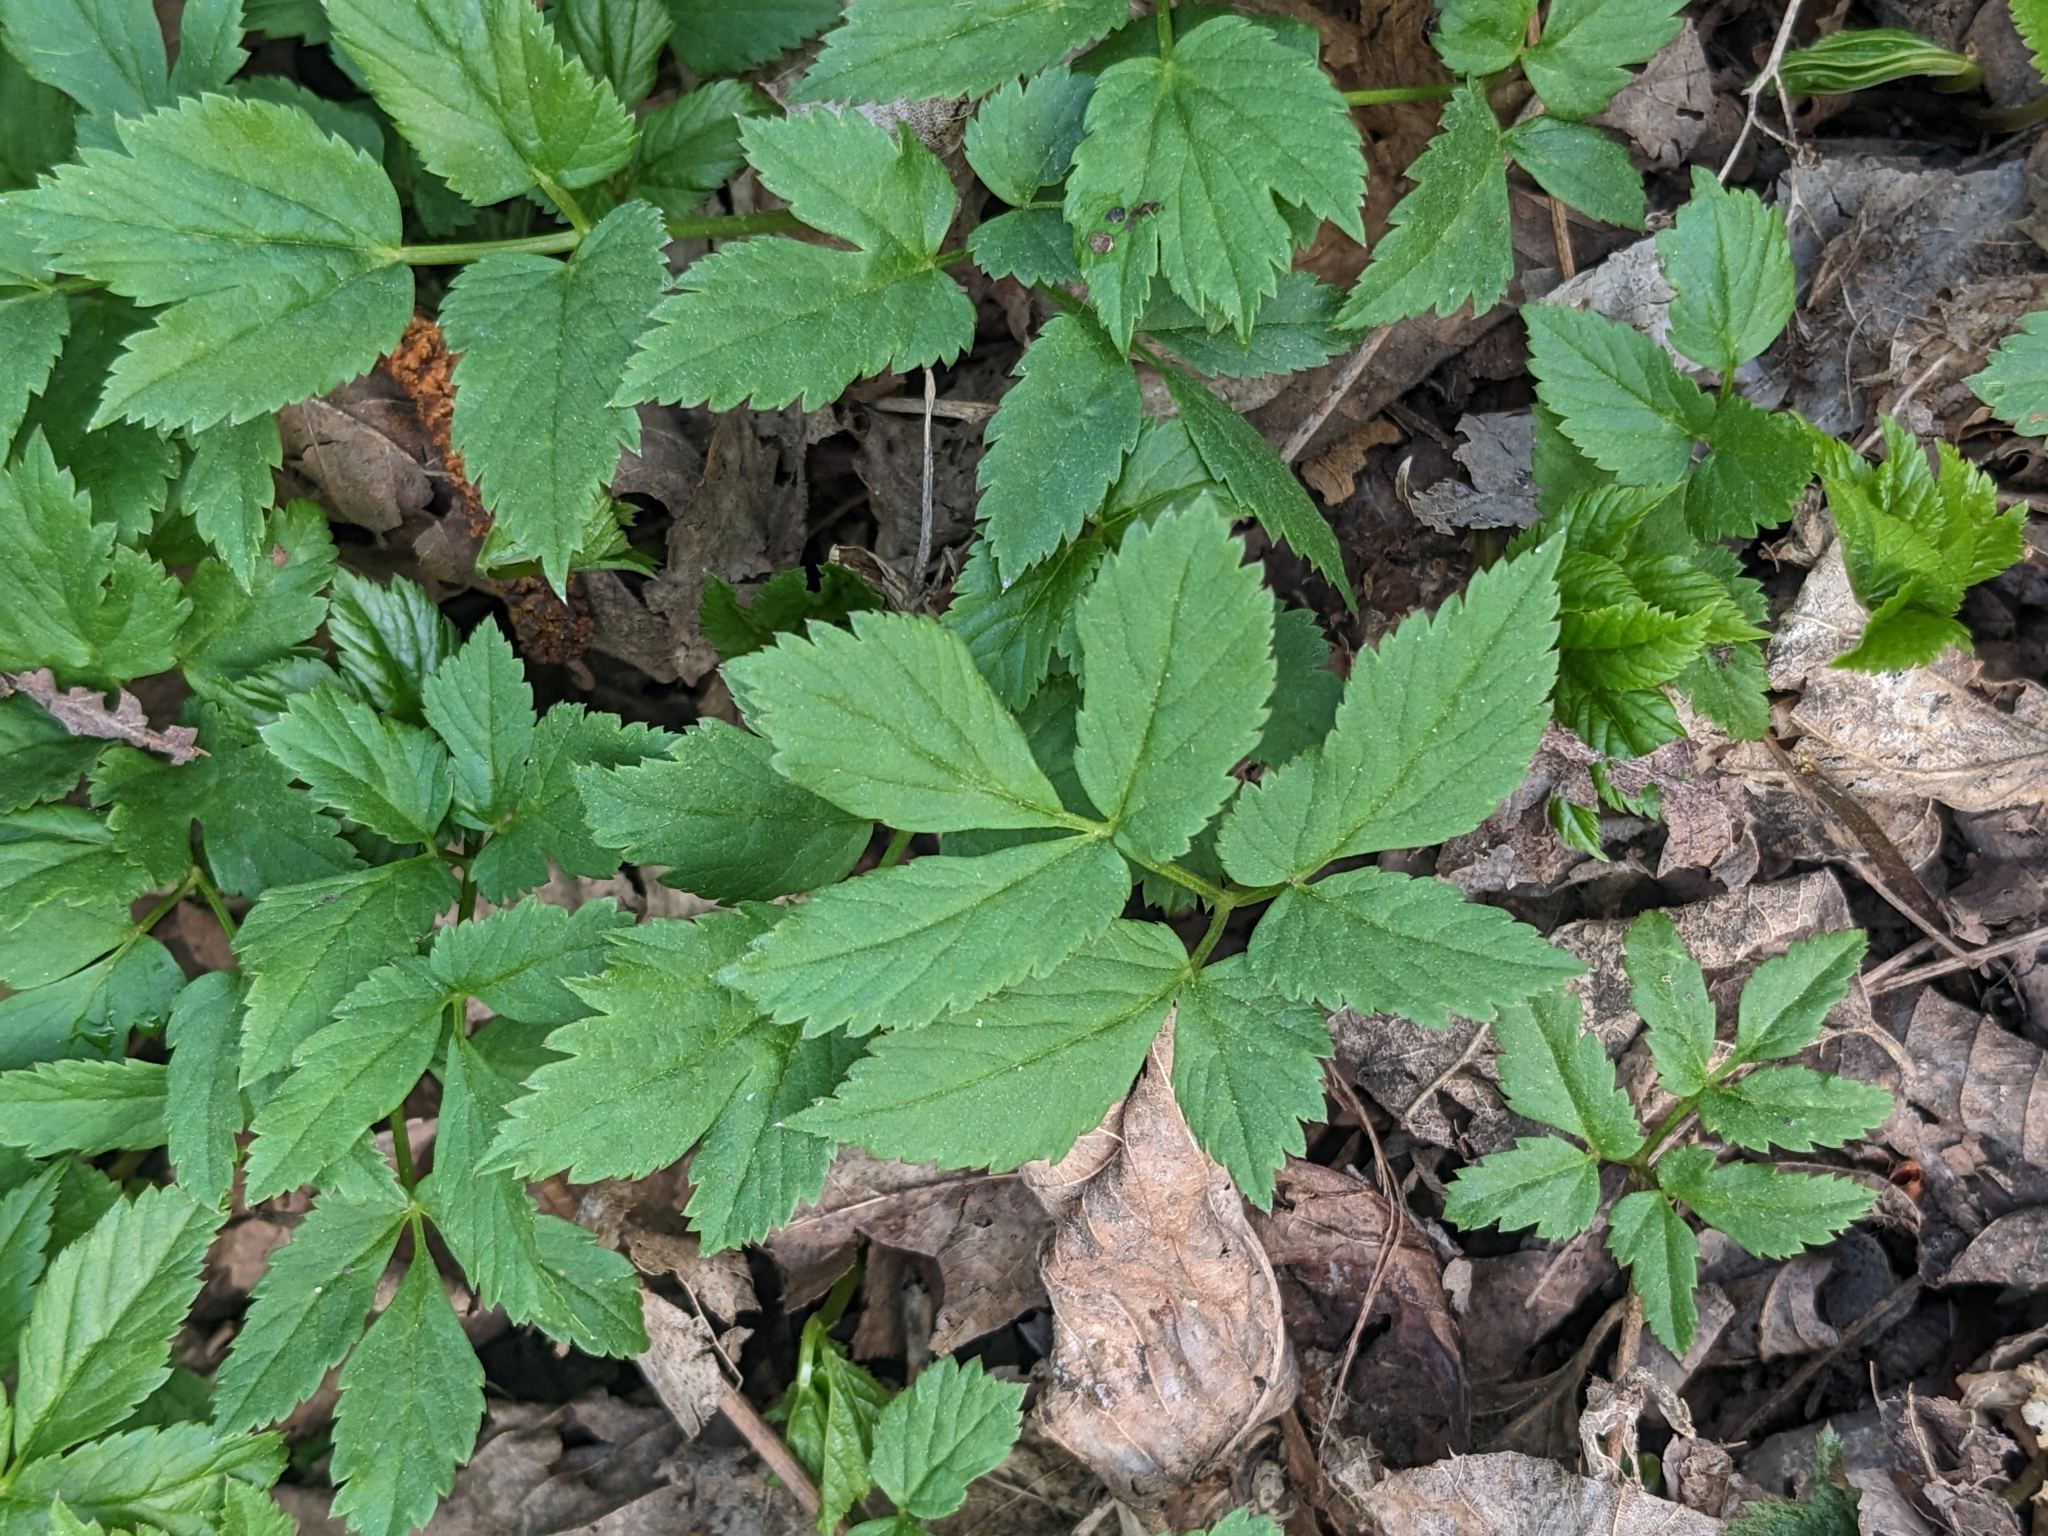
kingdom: Plantae
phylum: Tracheophyta
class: Magnoliopsida
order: Apiales
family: Apiaceae
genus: Aegopodium
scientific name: Aegopodium podagraria
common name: Ground-elder
